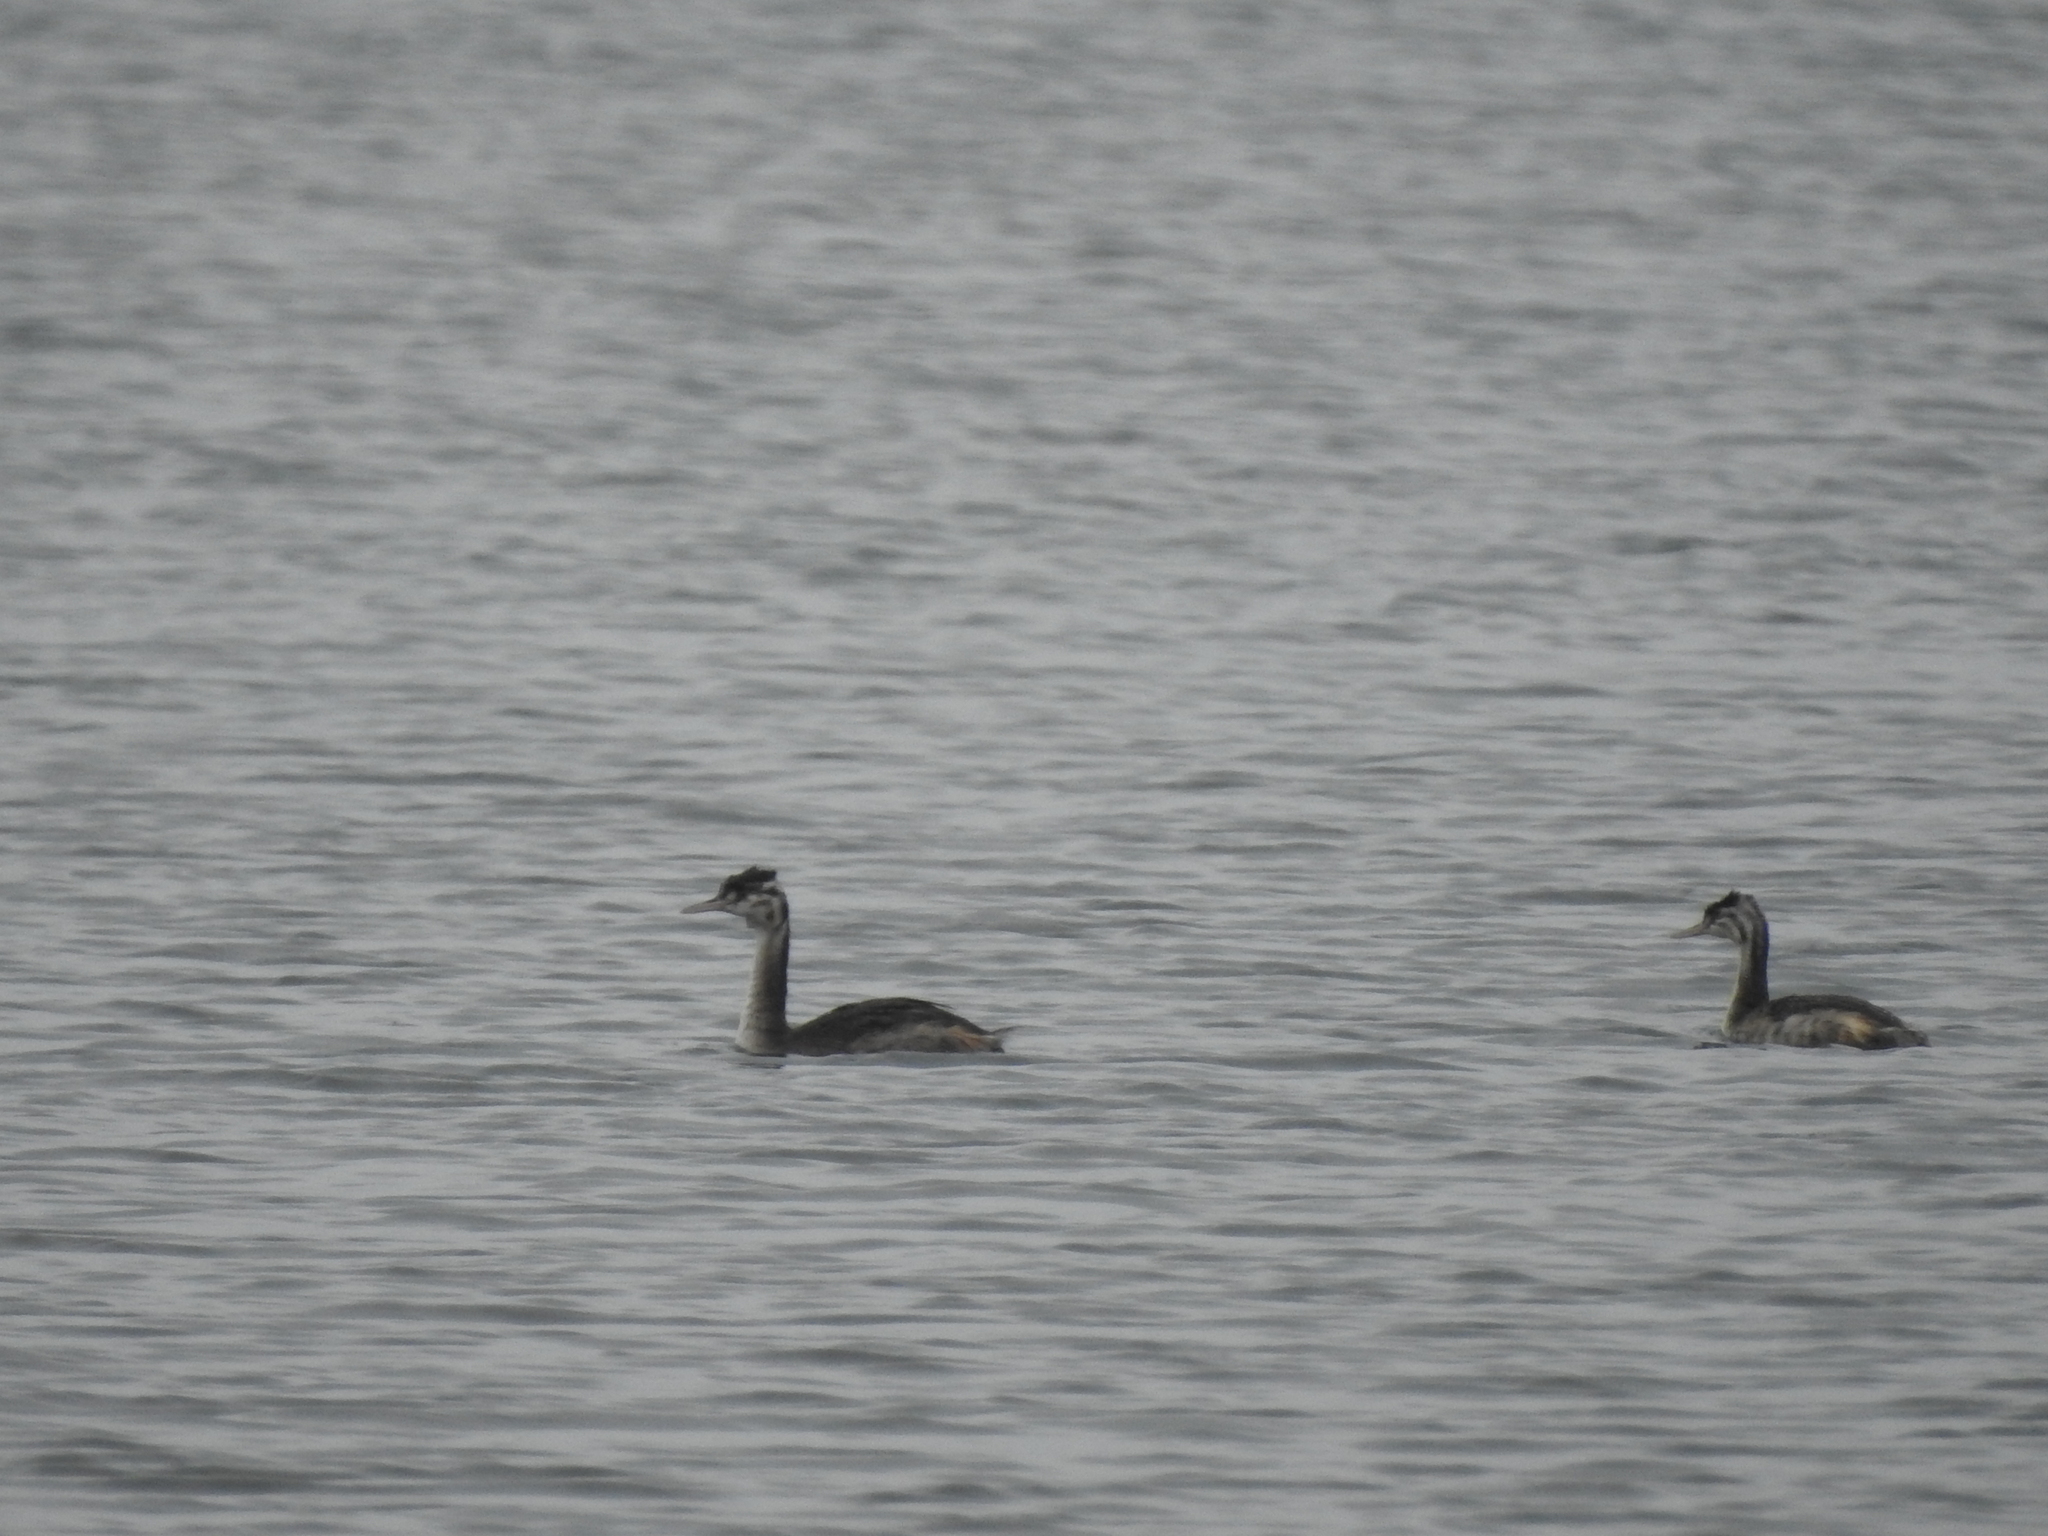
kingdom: Animalia
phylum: Chordata
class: Aves
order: Podicipediformes
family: Podicipedidae
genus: Podiceps
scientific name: Podiceps cristatus
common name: Great crested grebe
